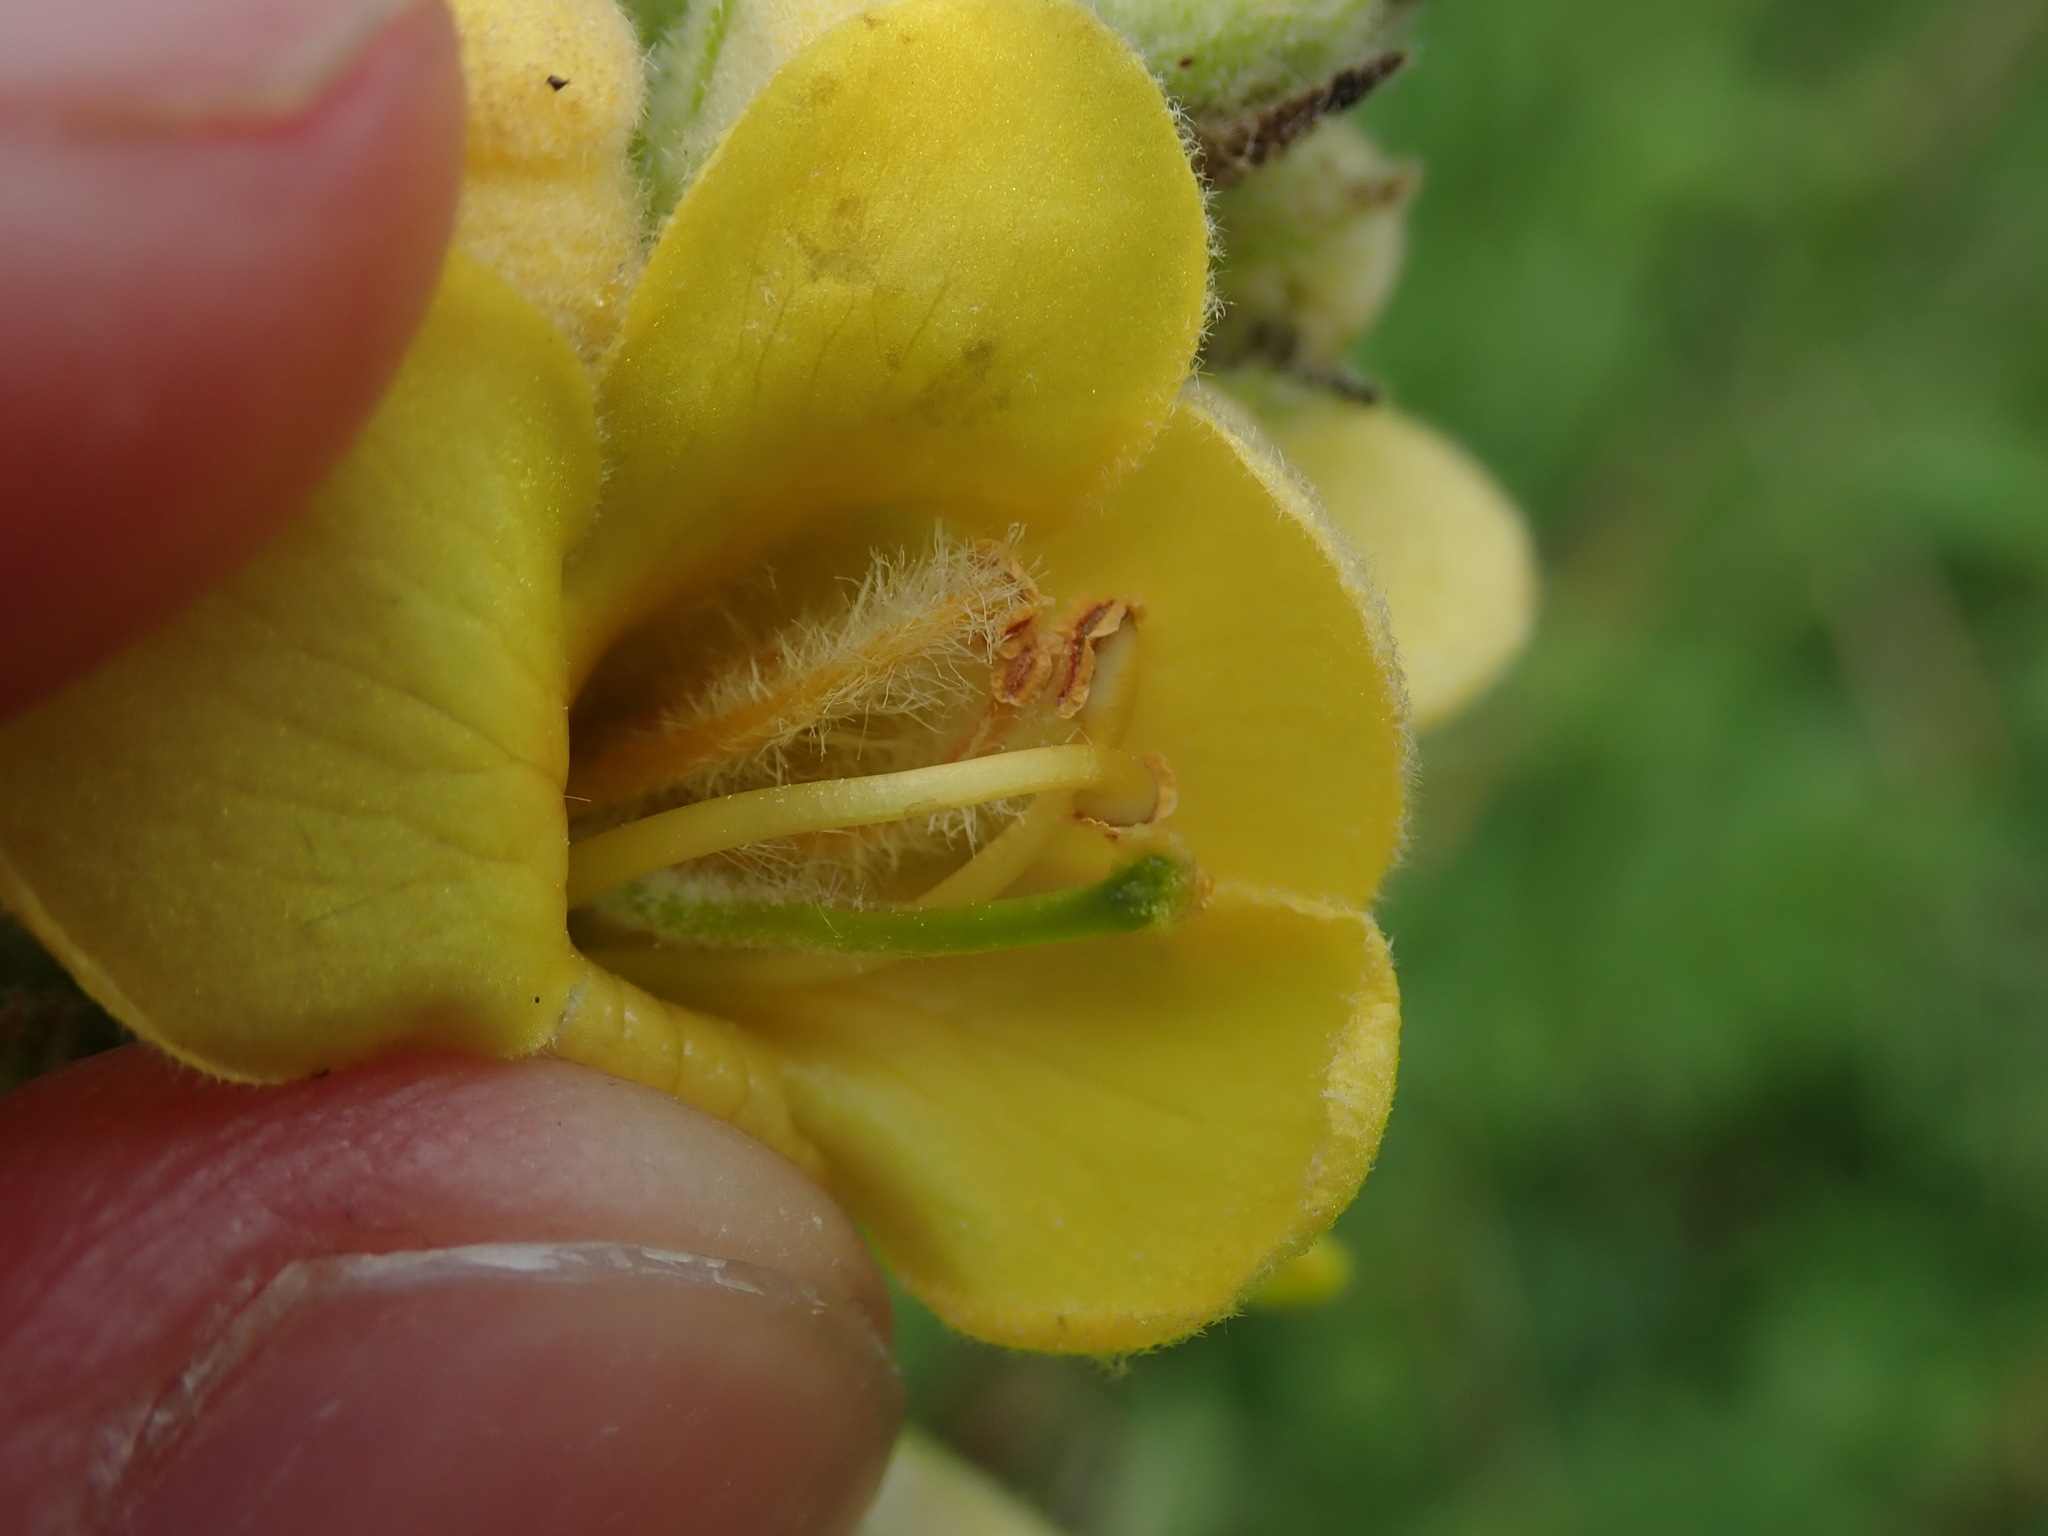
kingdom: Plantae
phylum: Tracheophyta
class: Magnoliopsida
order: Lamiales
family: Scrophulariaceae
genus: Verbascum
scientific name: Verbascum thapsus
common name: Common mullein
